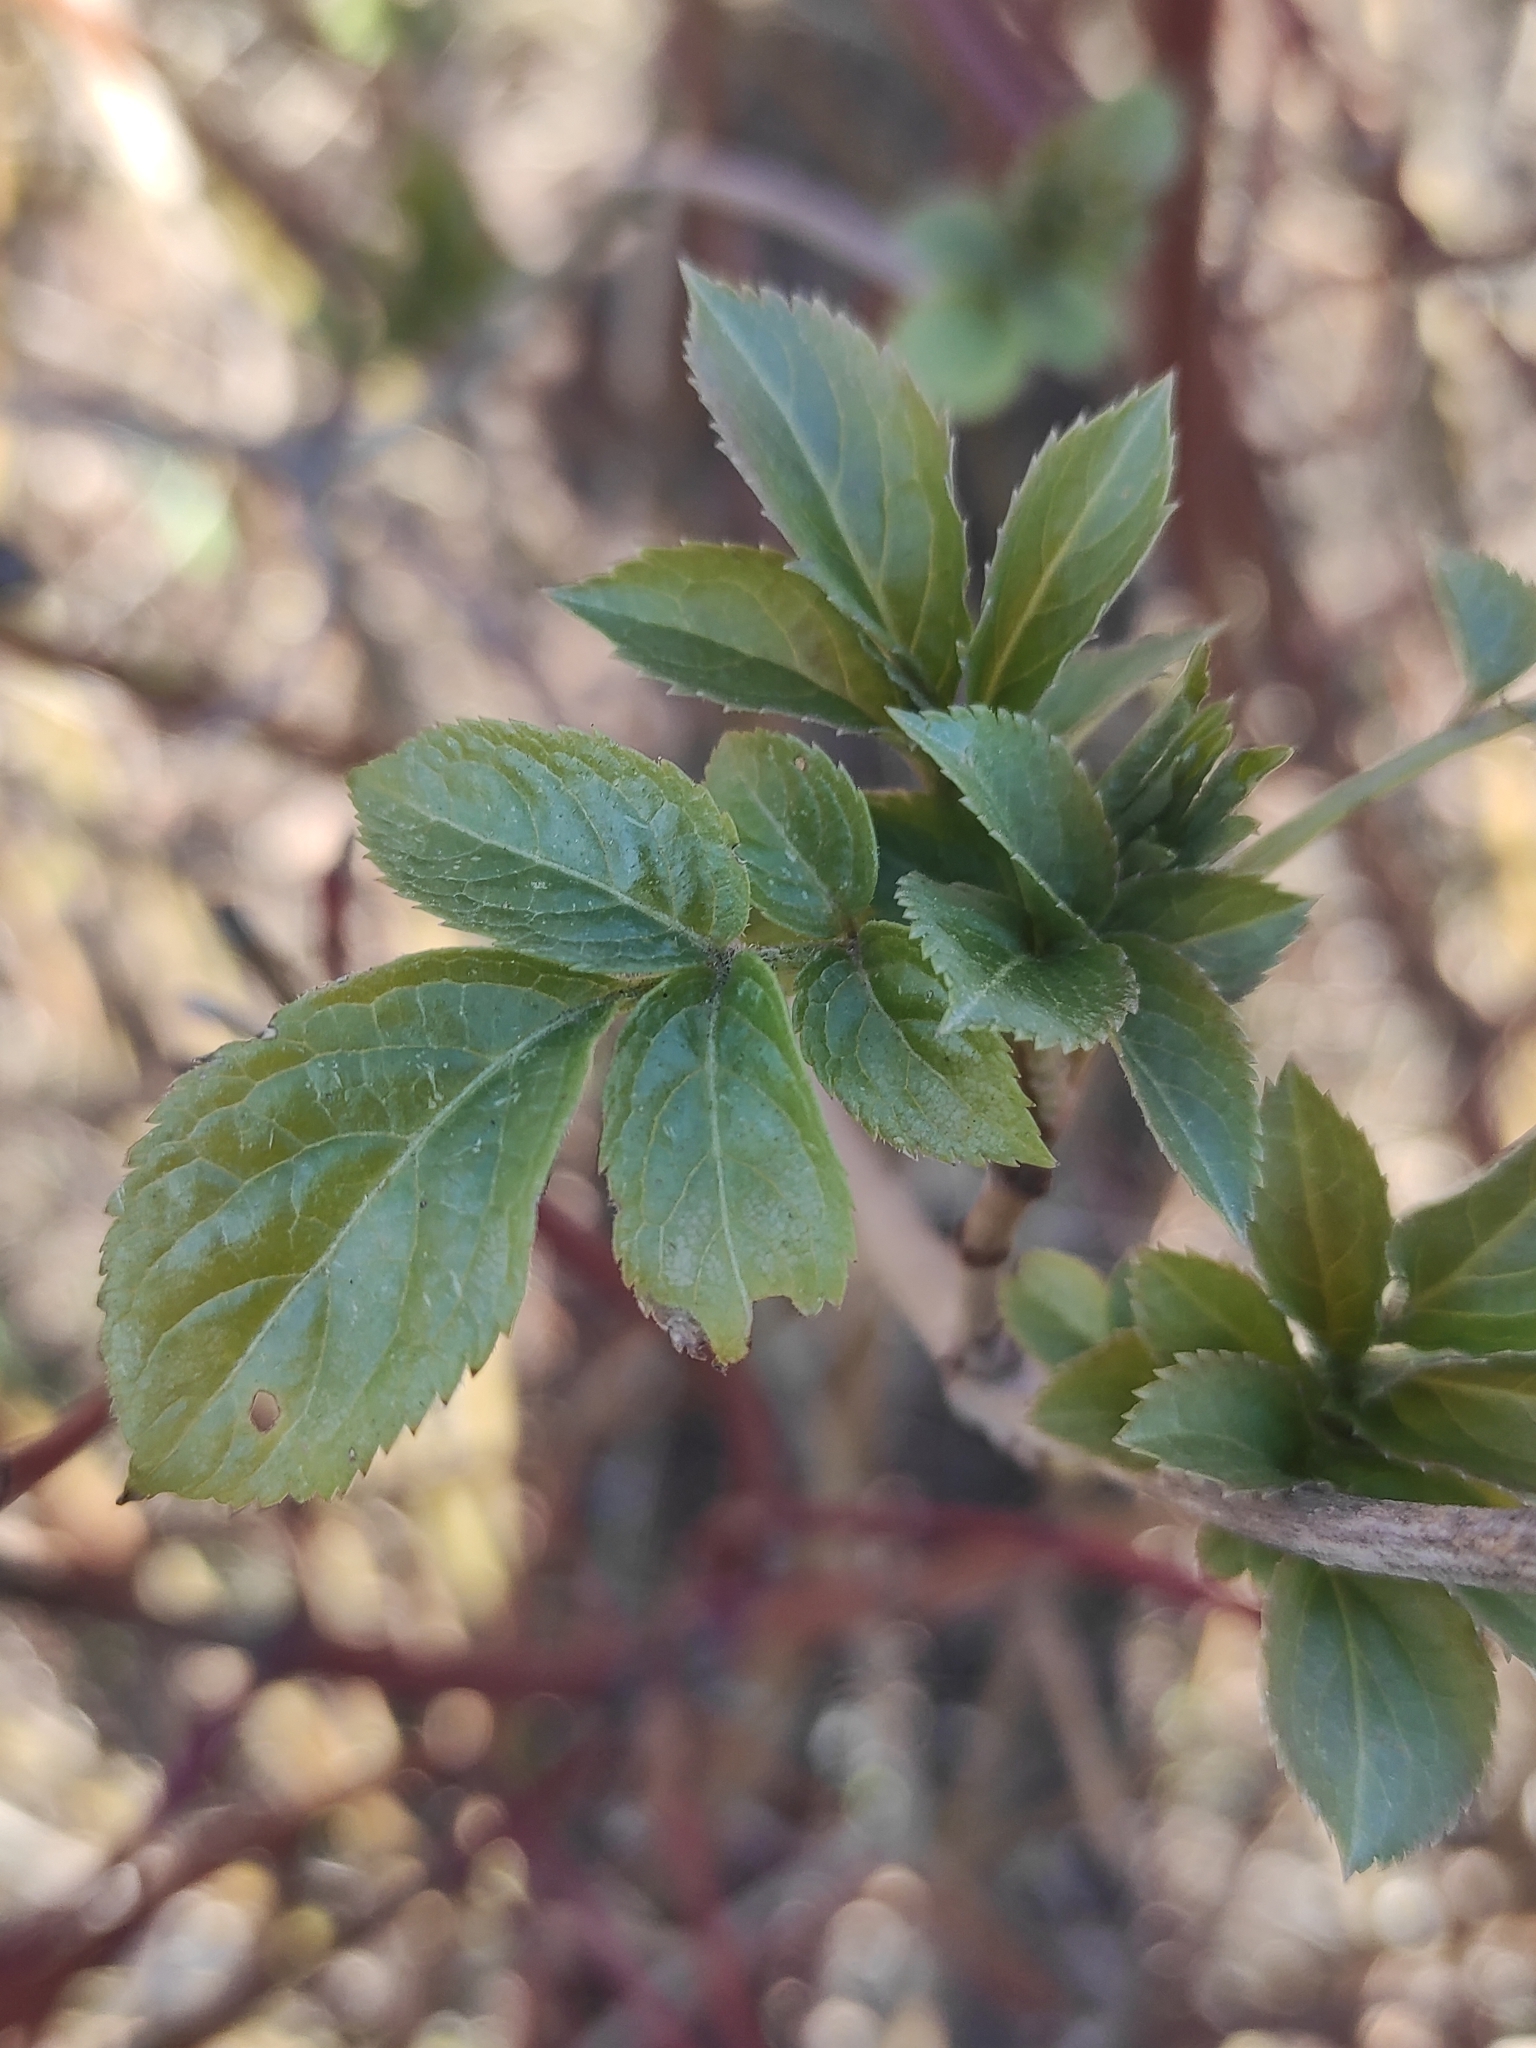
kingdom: Plantae
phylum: Tracheophyta
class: Magnoliopsida
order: Dipsacales
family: Viburnaceae
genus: Sambucus
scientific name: Sambucus nigra
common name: Elder
